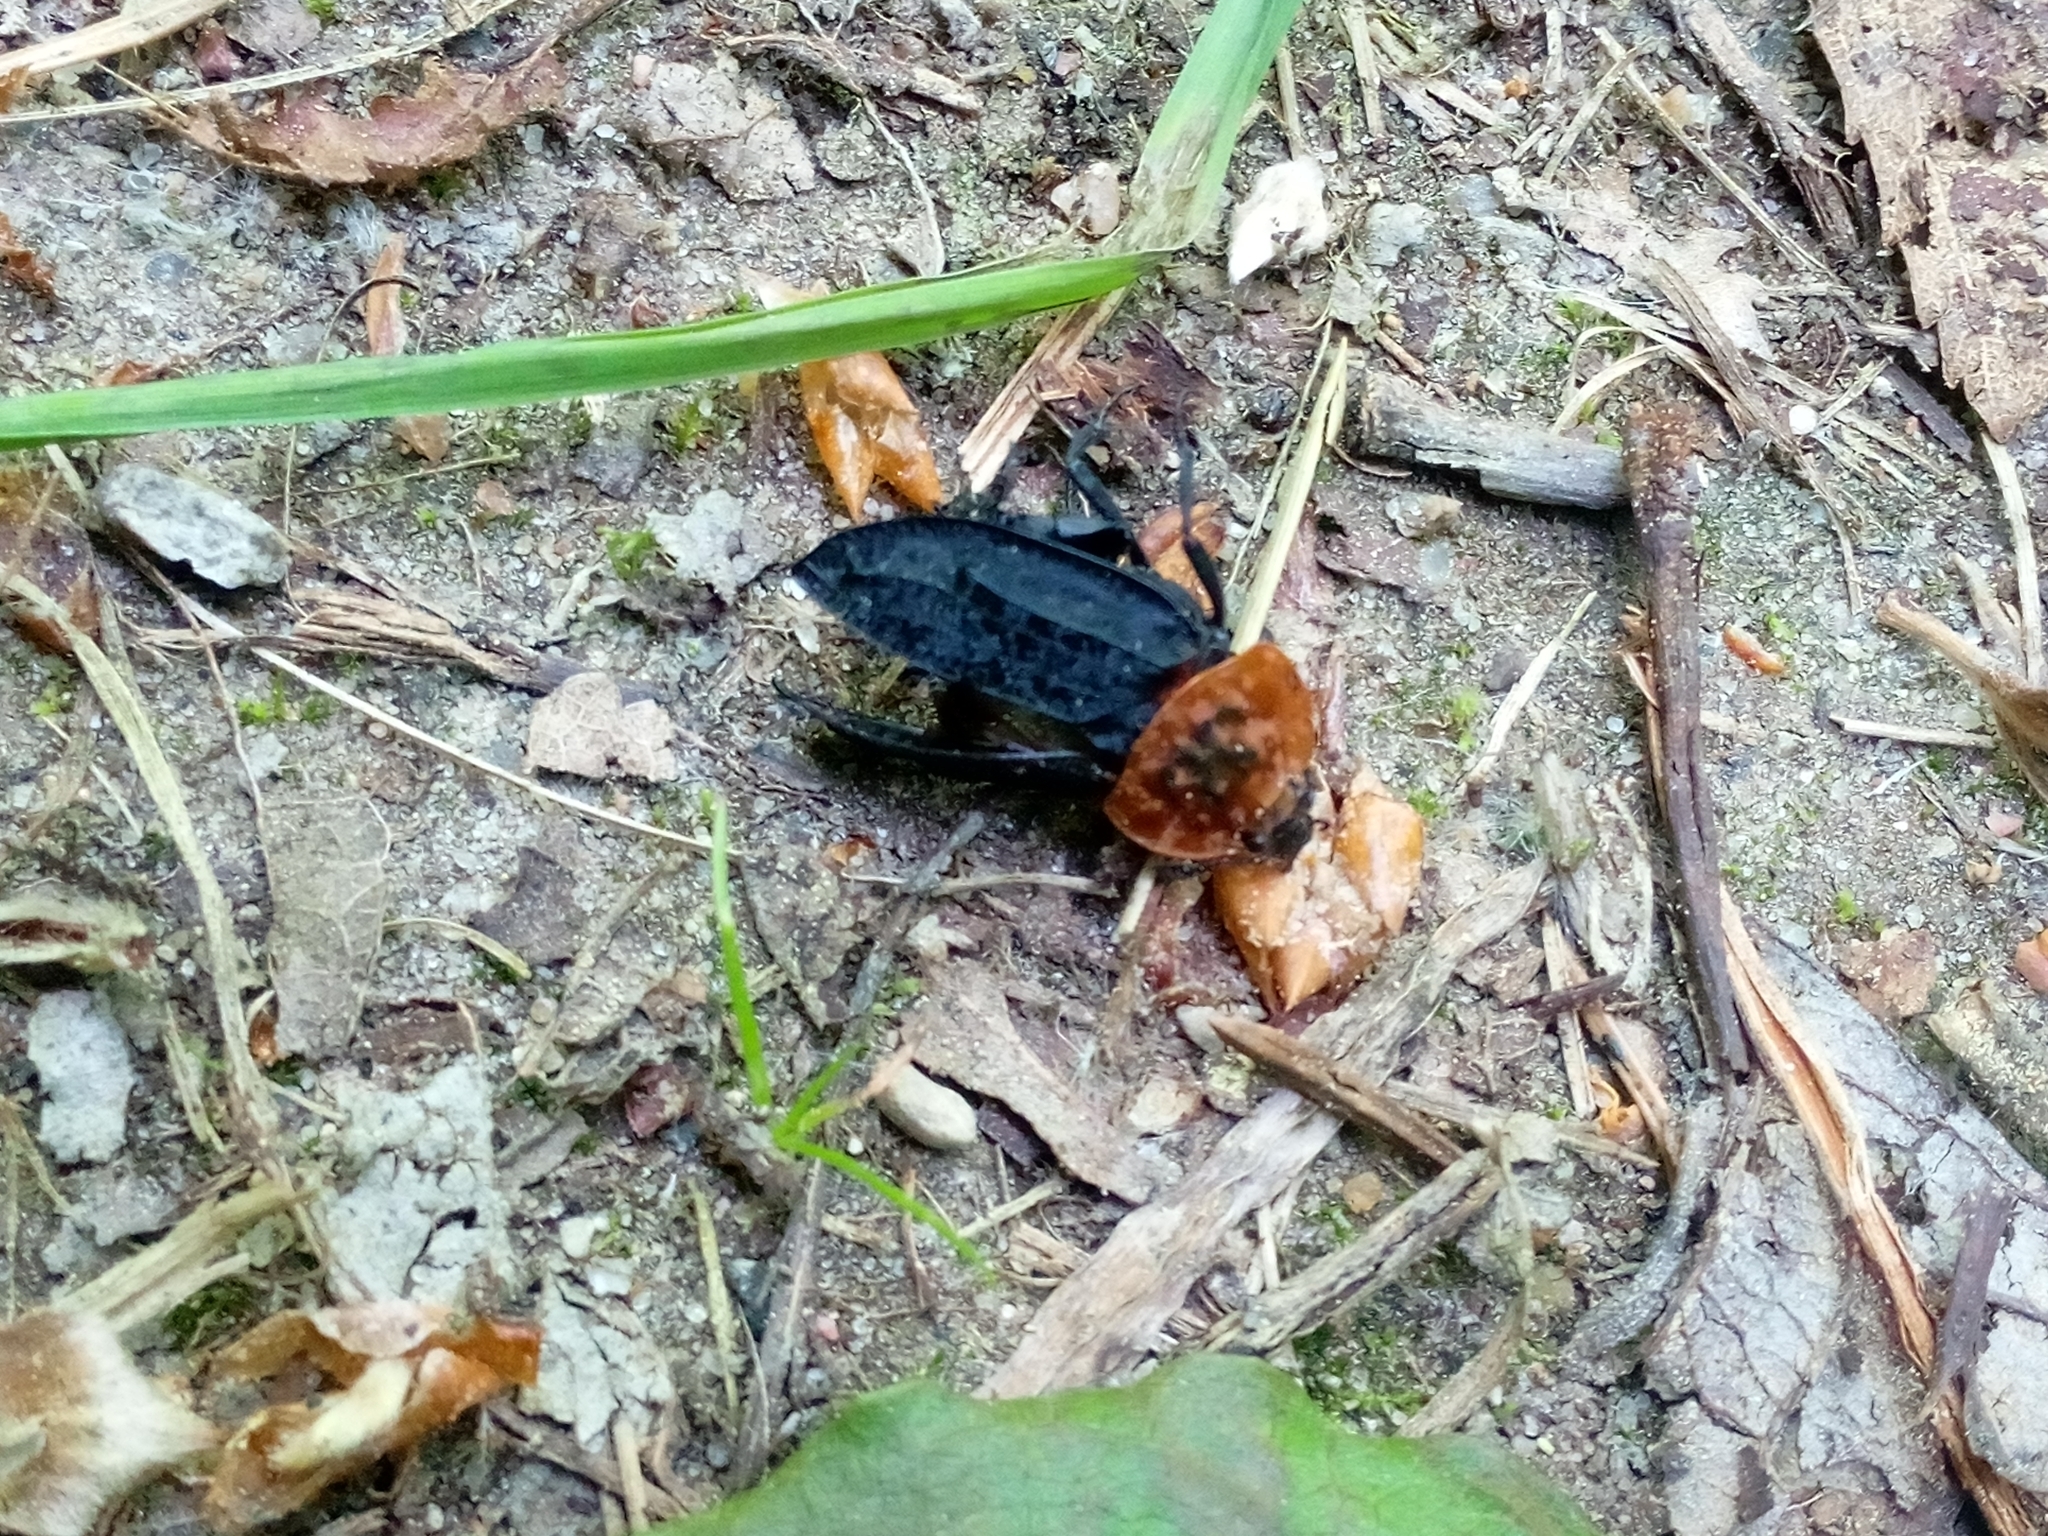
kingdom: Animalia
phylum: Arthropoda
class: Insecta
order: Coleoptera
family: Staphylinidae
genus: Oiceoptoma
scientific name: Oiceoptoma thoracicum
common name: Red-breasted carrion beetle
